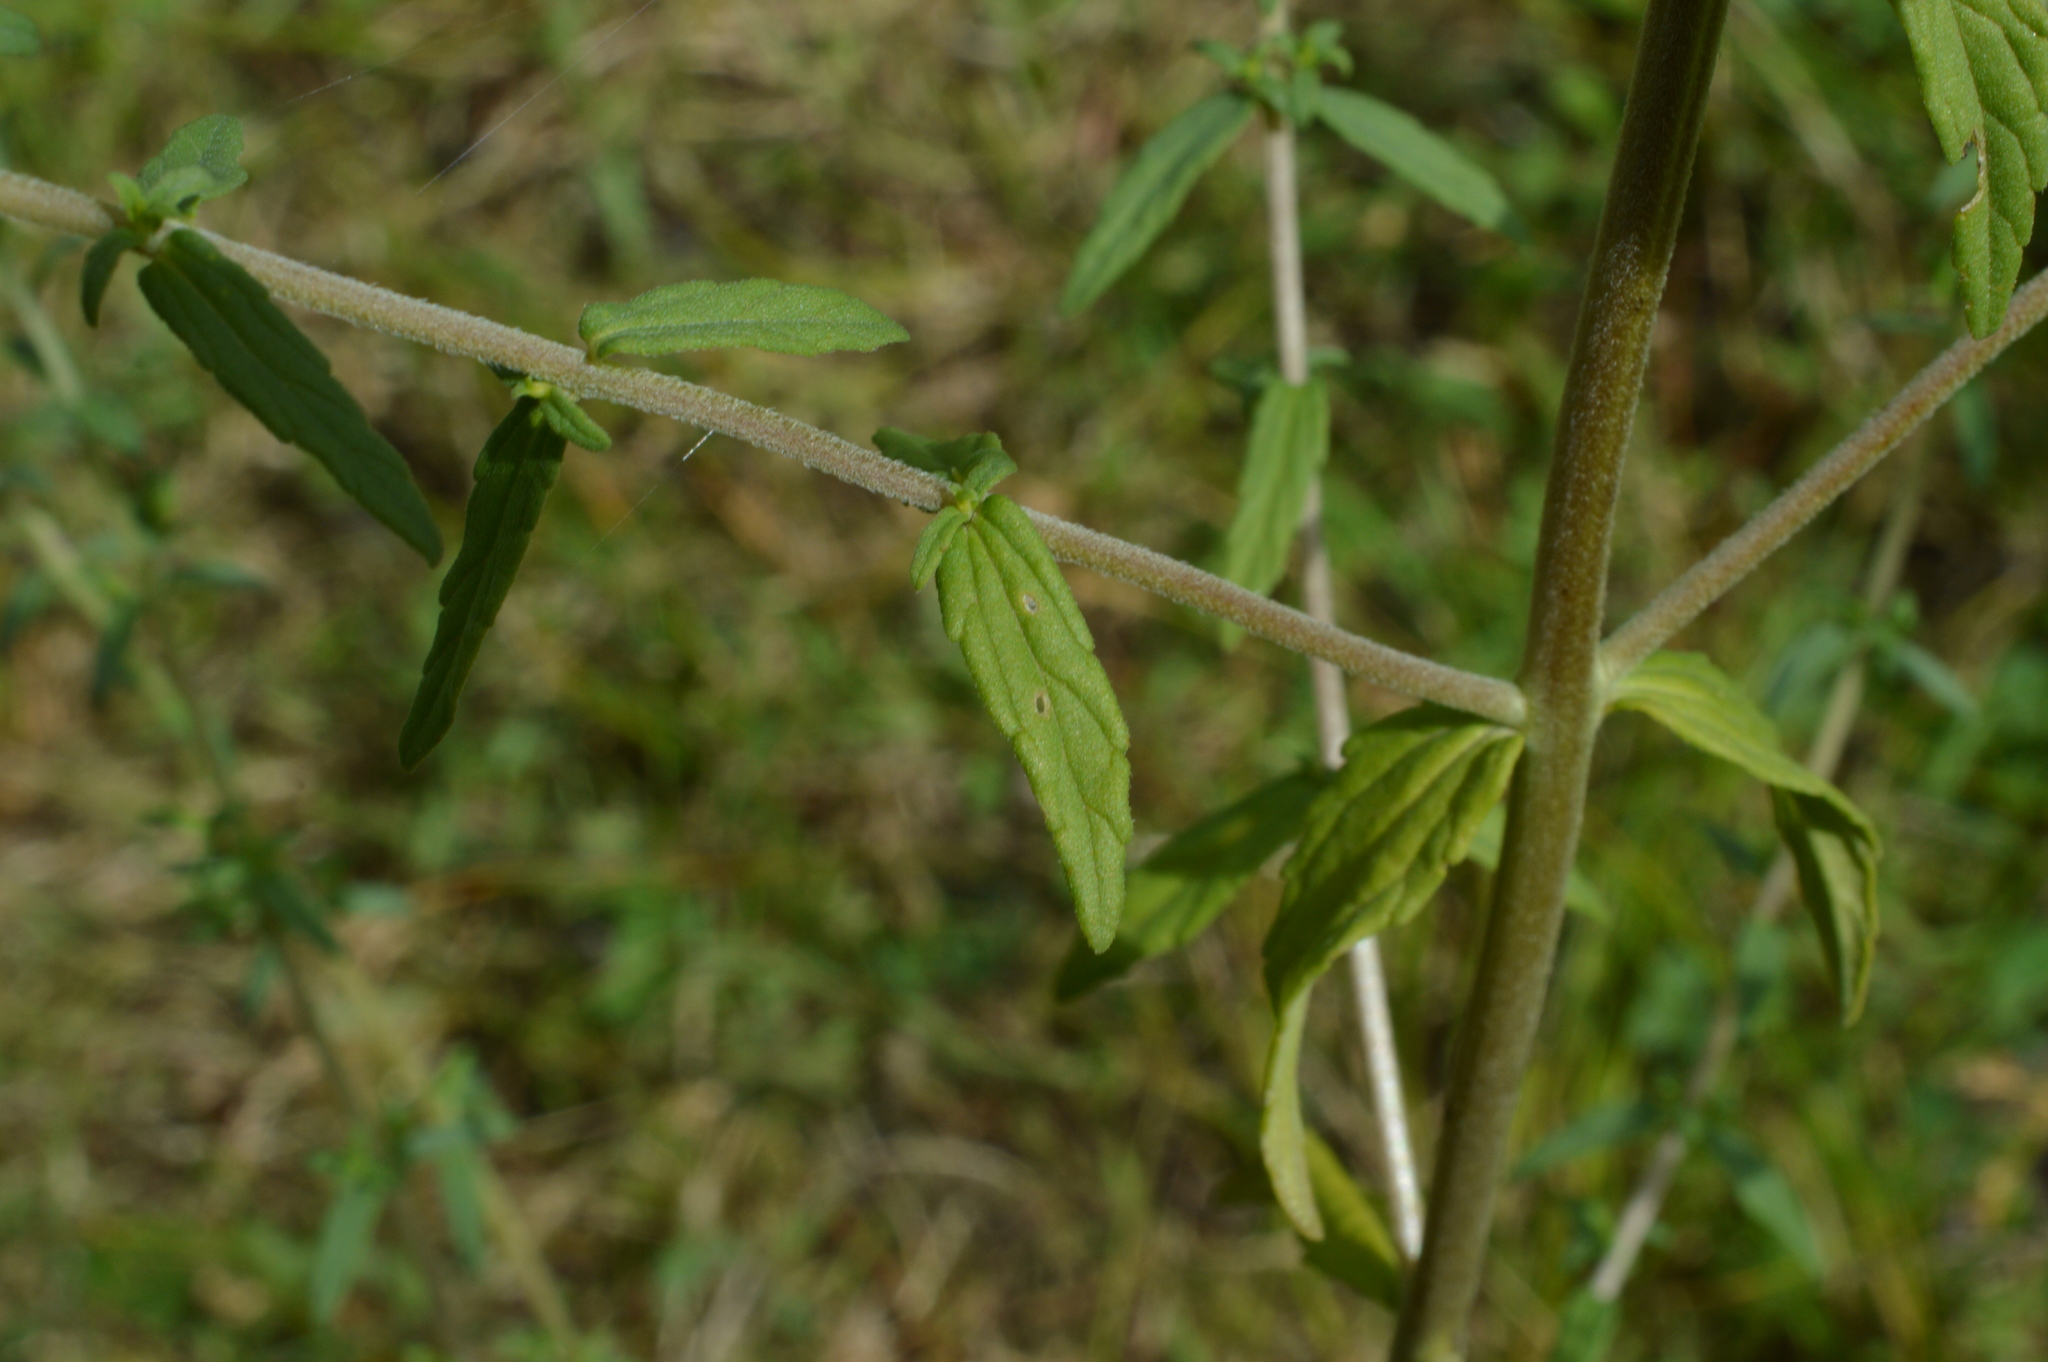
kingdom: Plantae
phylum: Tracheophyta
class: Magnoliopsida
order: Lamiales
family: Orobanchaceae
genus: Odontites
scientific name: Odontites vulgaris
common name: Broomrape
